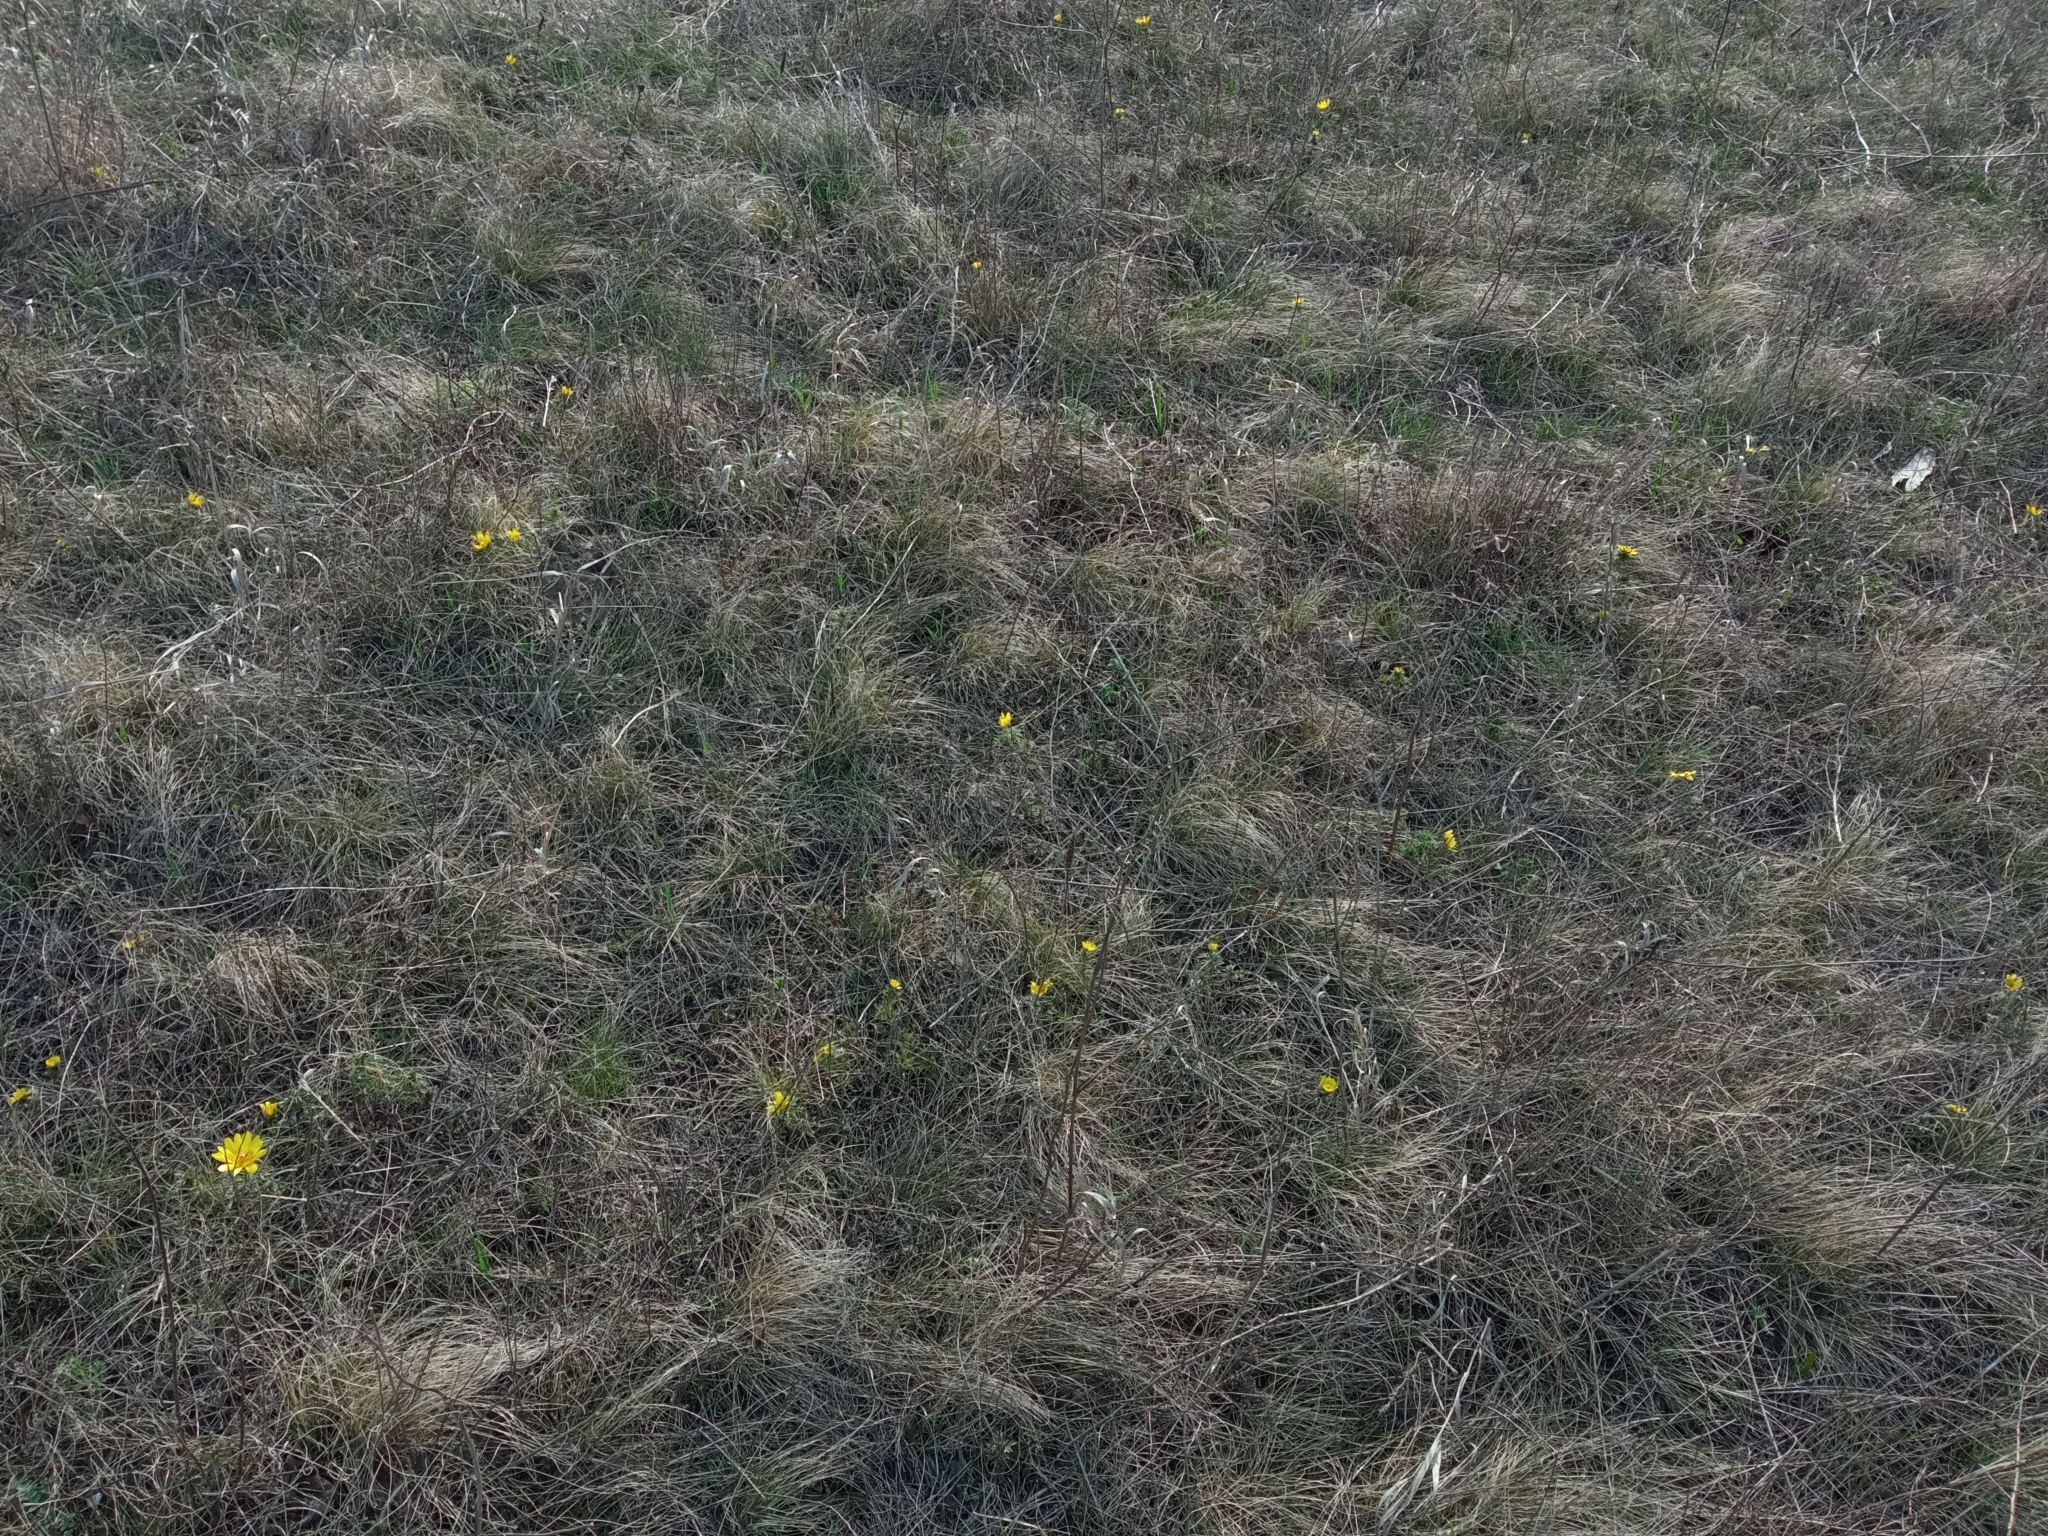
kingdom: Plantae
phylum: Tracheophyta
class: Magnoliopsida
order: Ranunculales
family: Ranunculaceae
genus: Adonis
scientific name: Adonis volgensis
